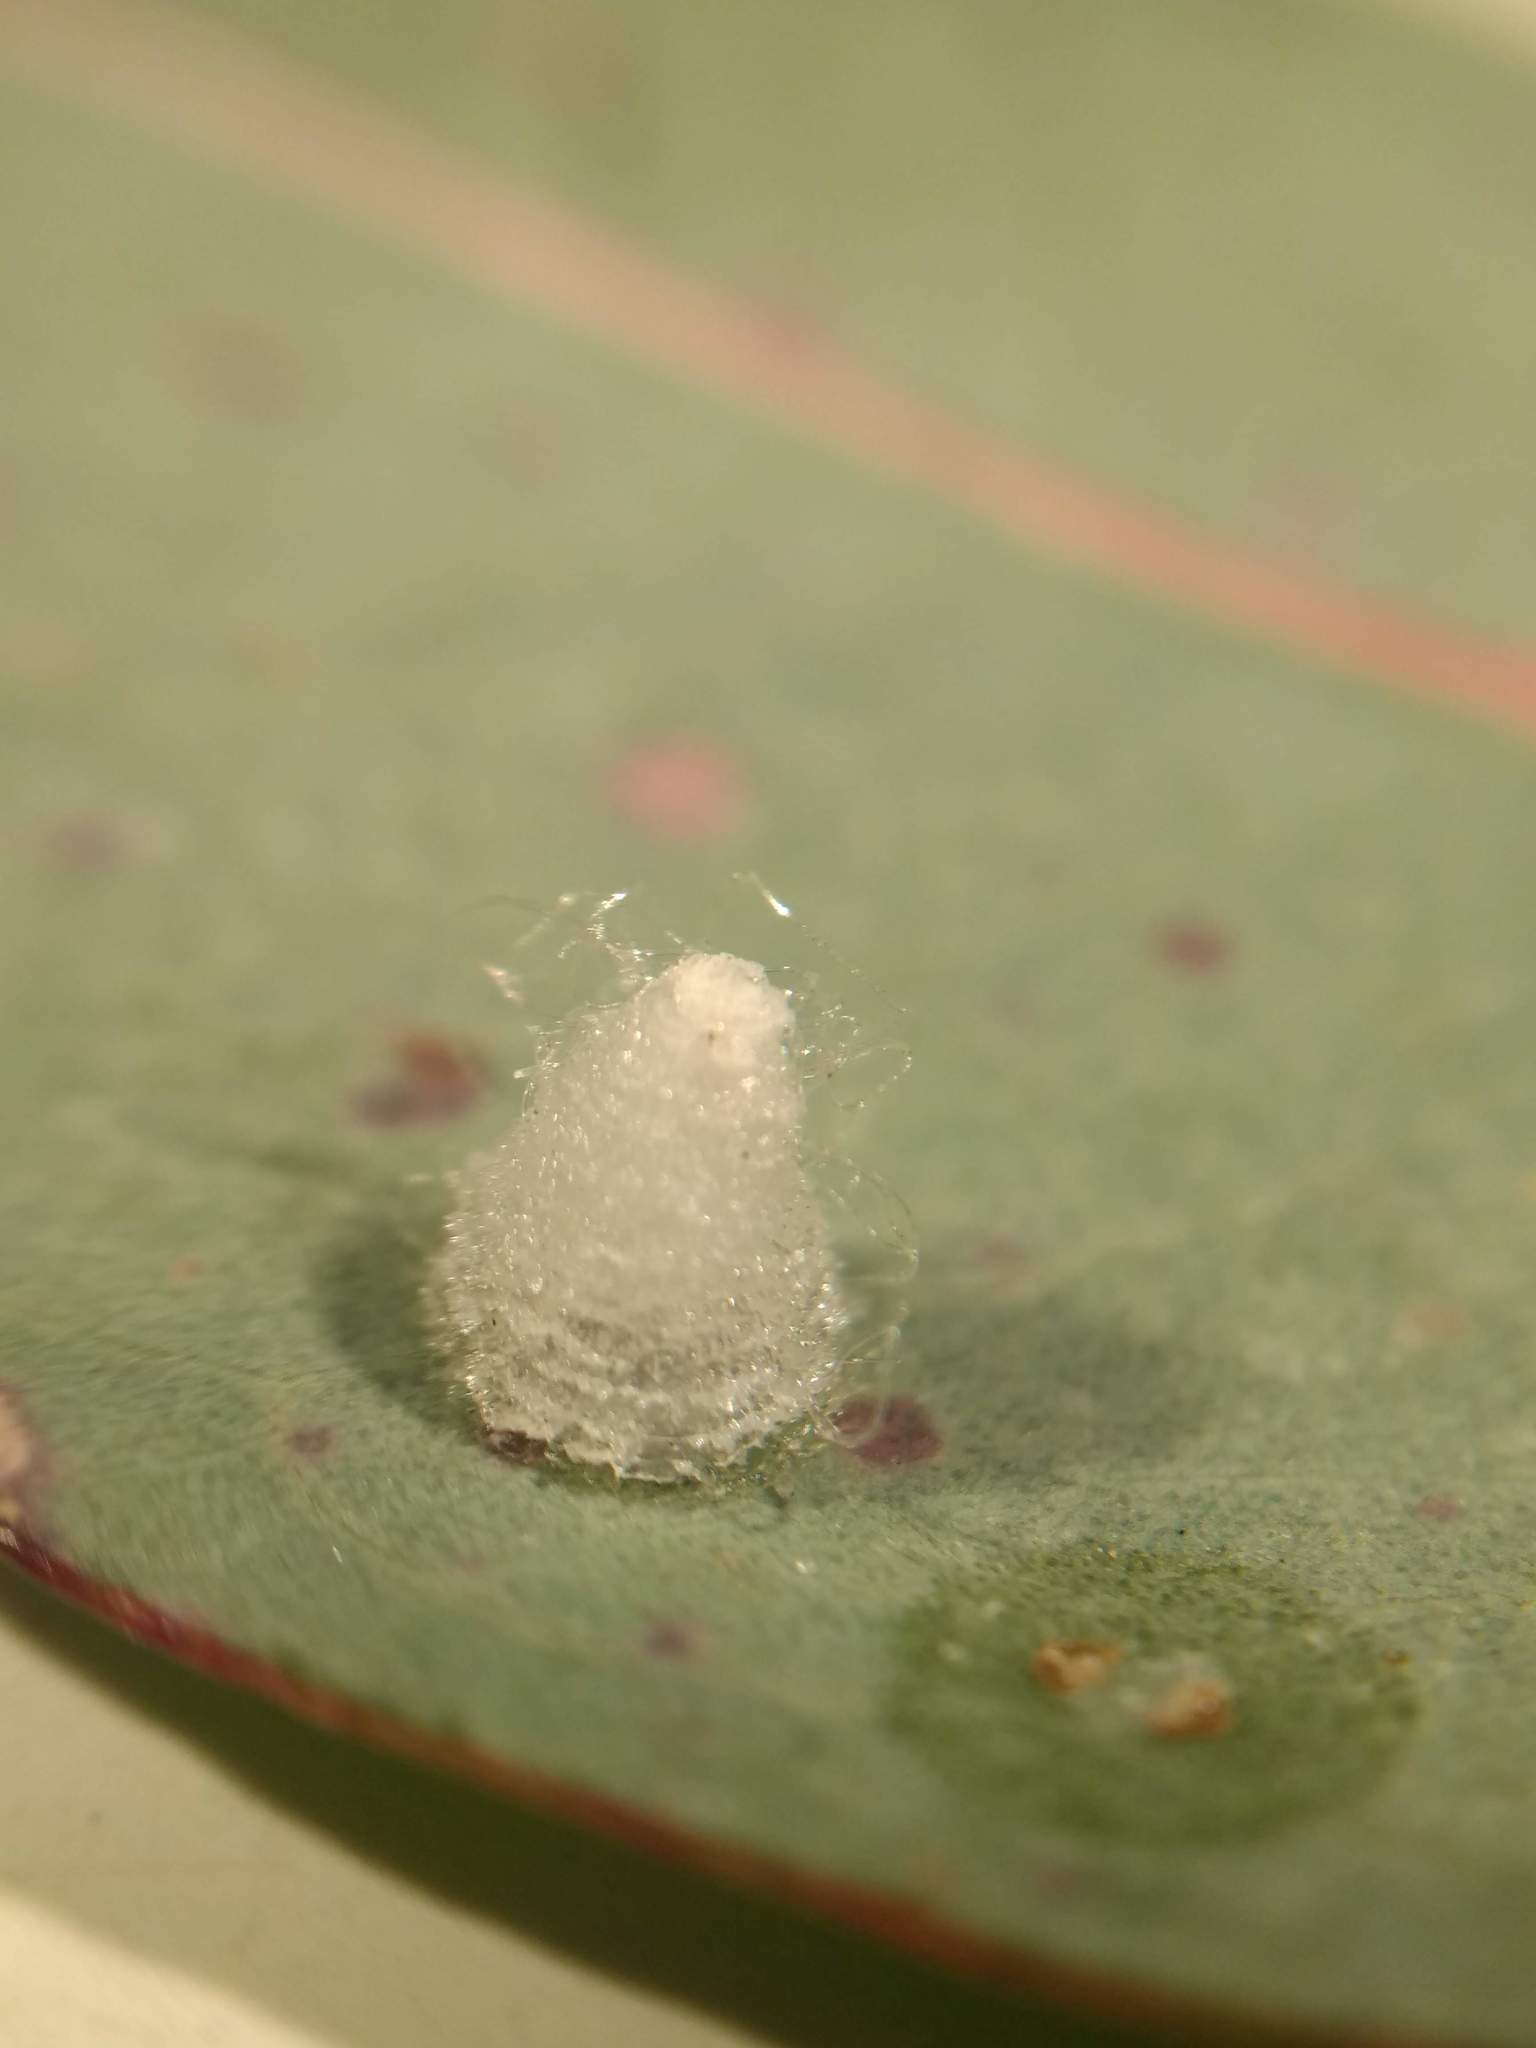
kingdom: Animalia
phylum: Arthropoda
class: Insecta
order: Hemiptera
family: Aphalaridae
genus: Glycaspis
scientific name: Glycaspis brimblecombei
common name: Red gum lerp psyllid
